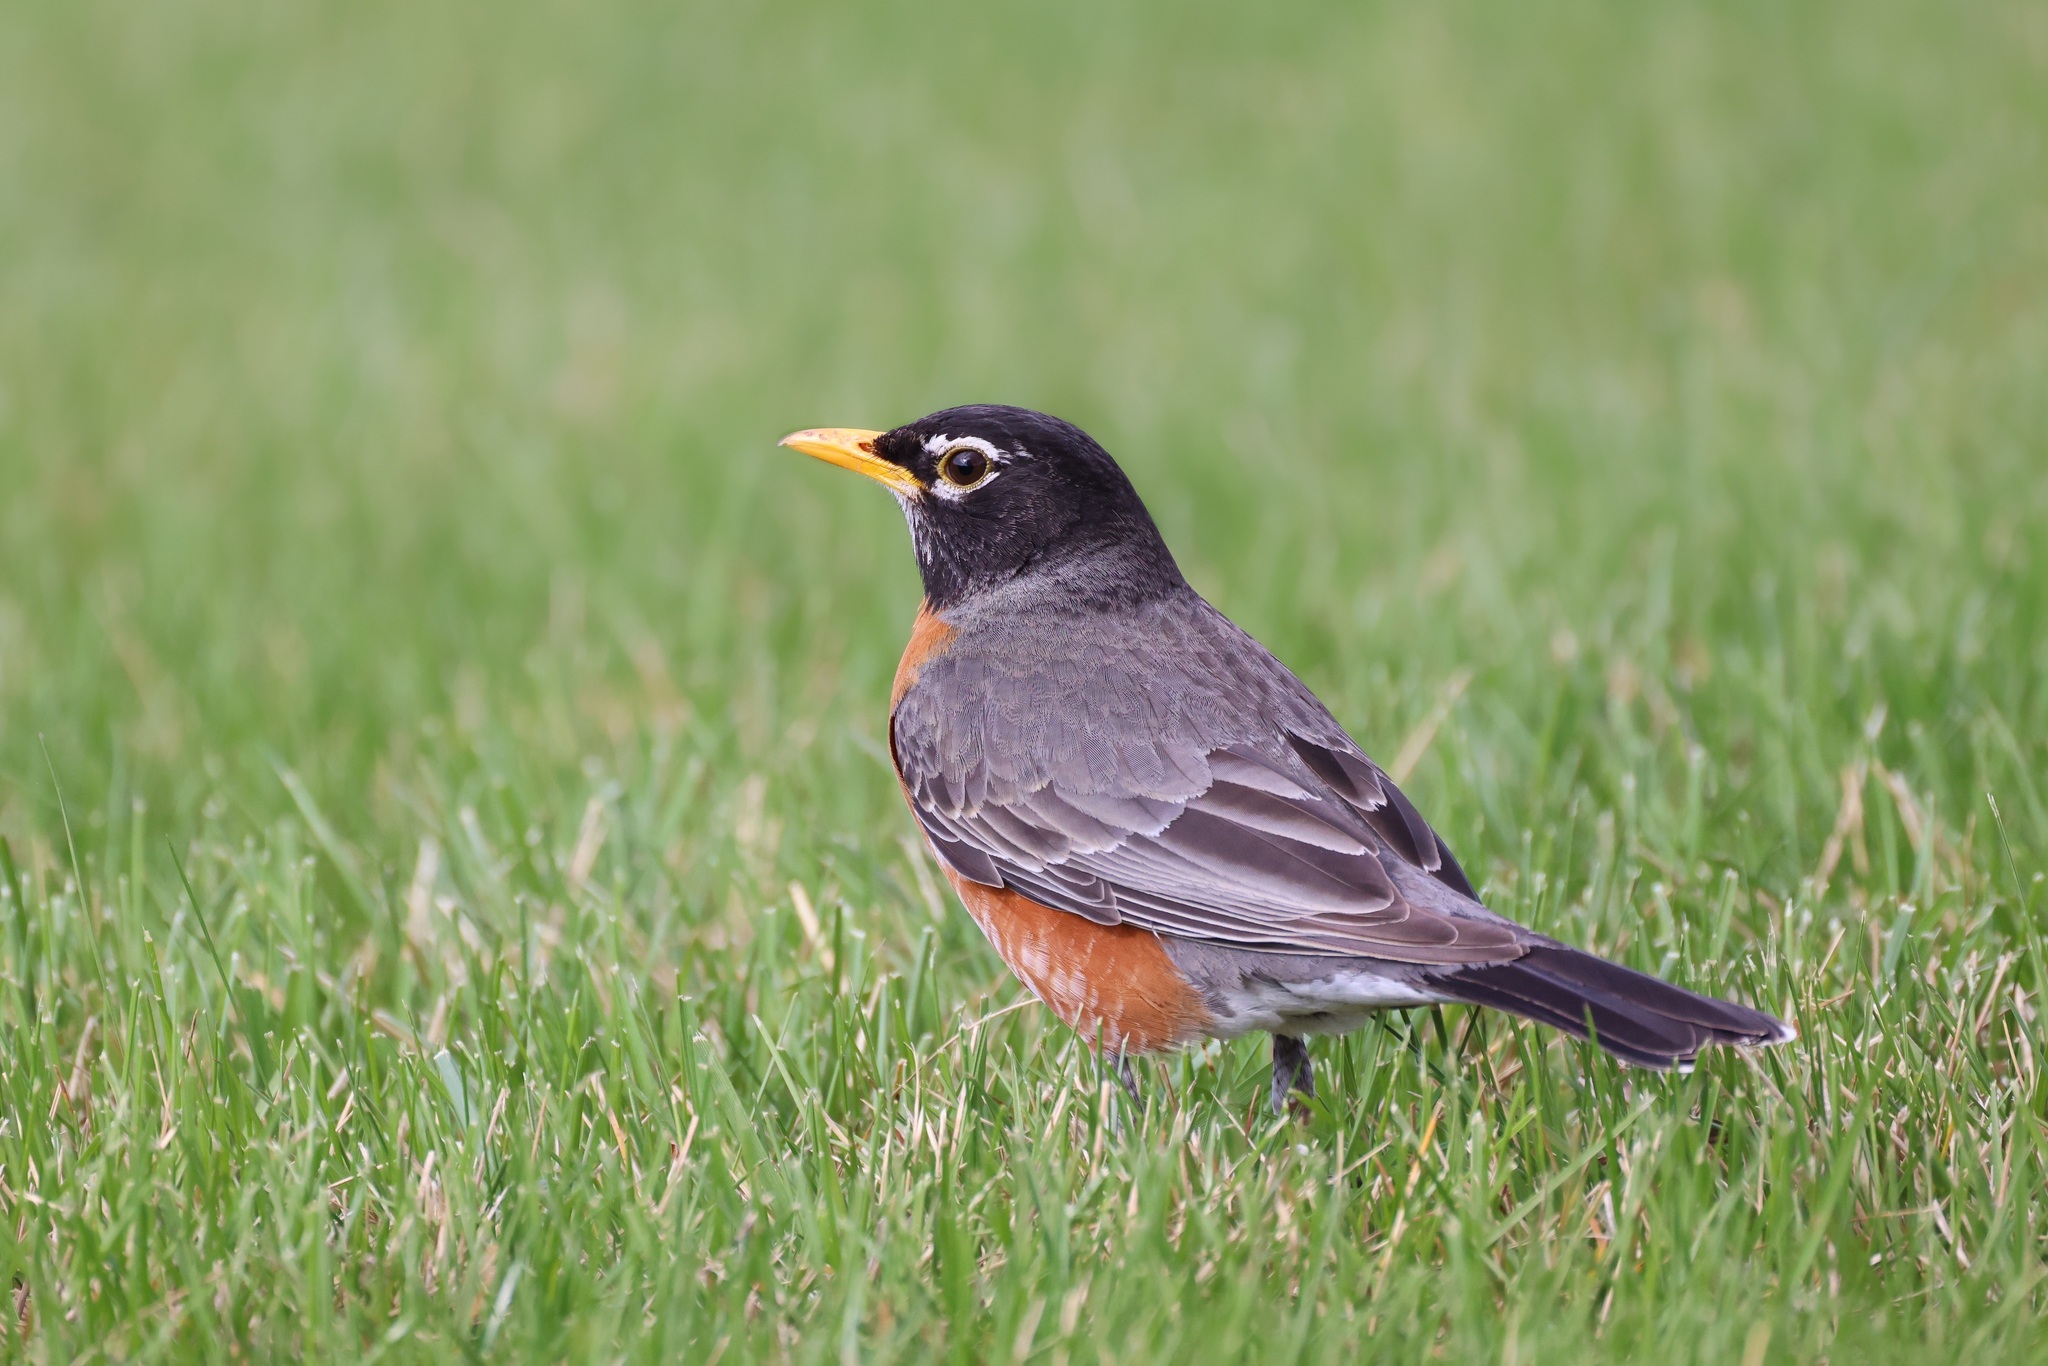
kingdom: Animalia
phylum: Chordata
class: Aves
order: Passeriformes
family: Turdidae
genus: Turdus
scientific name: Turdus migratorius
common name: American robin
